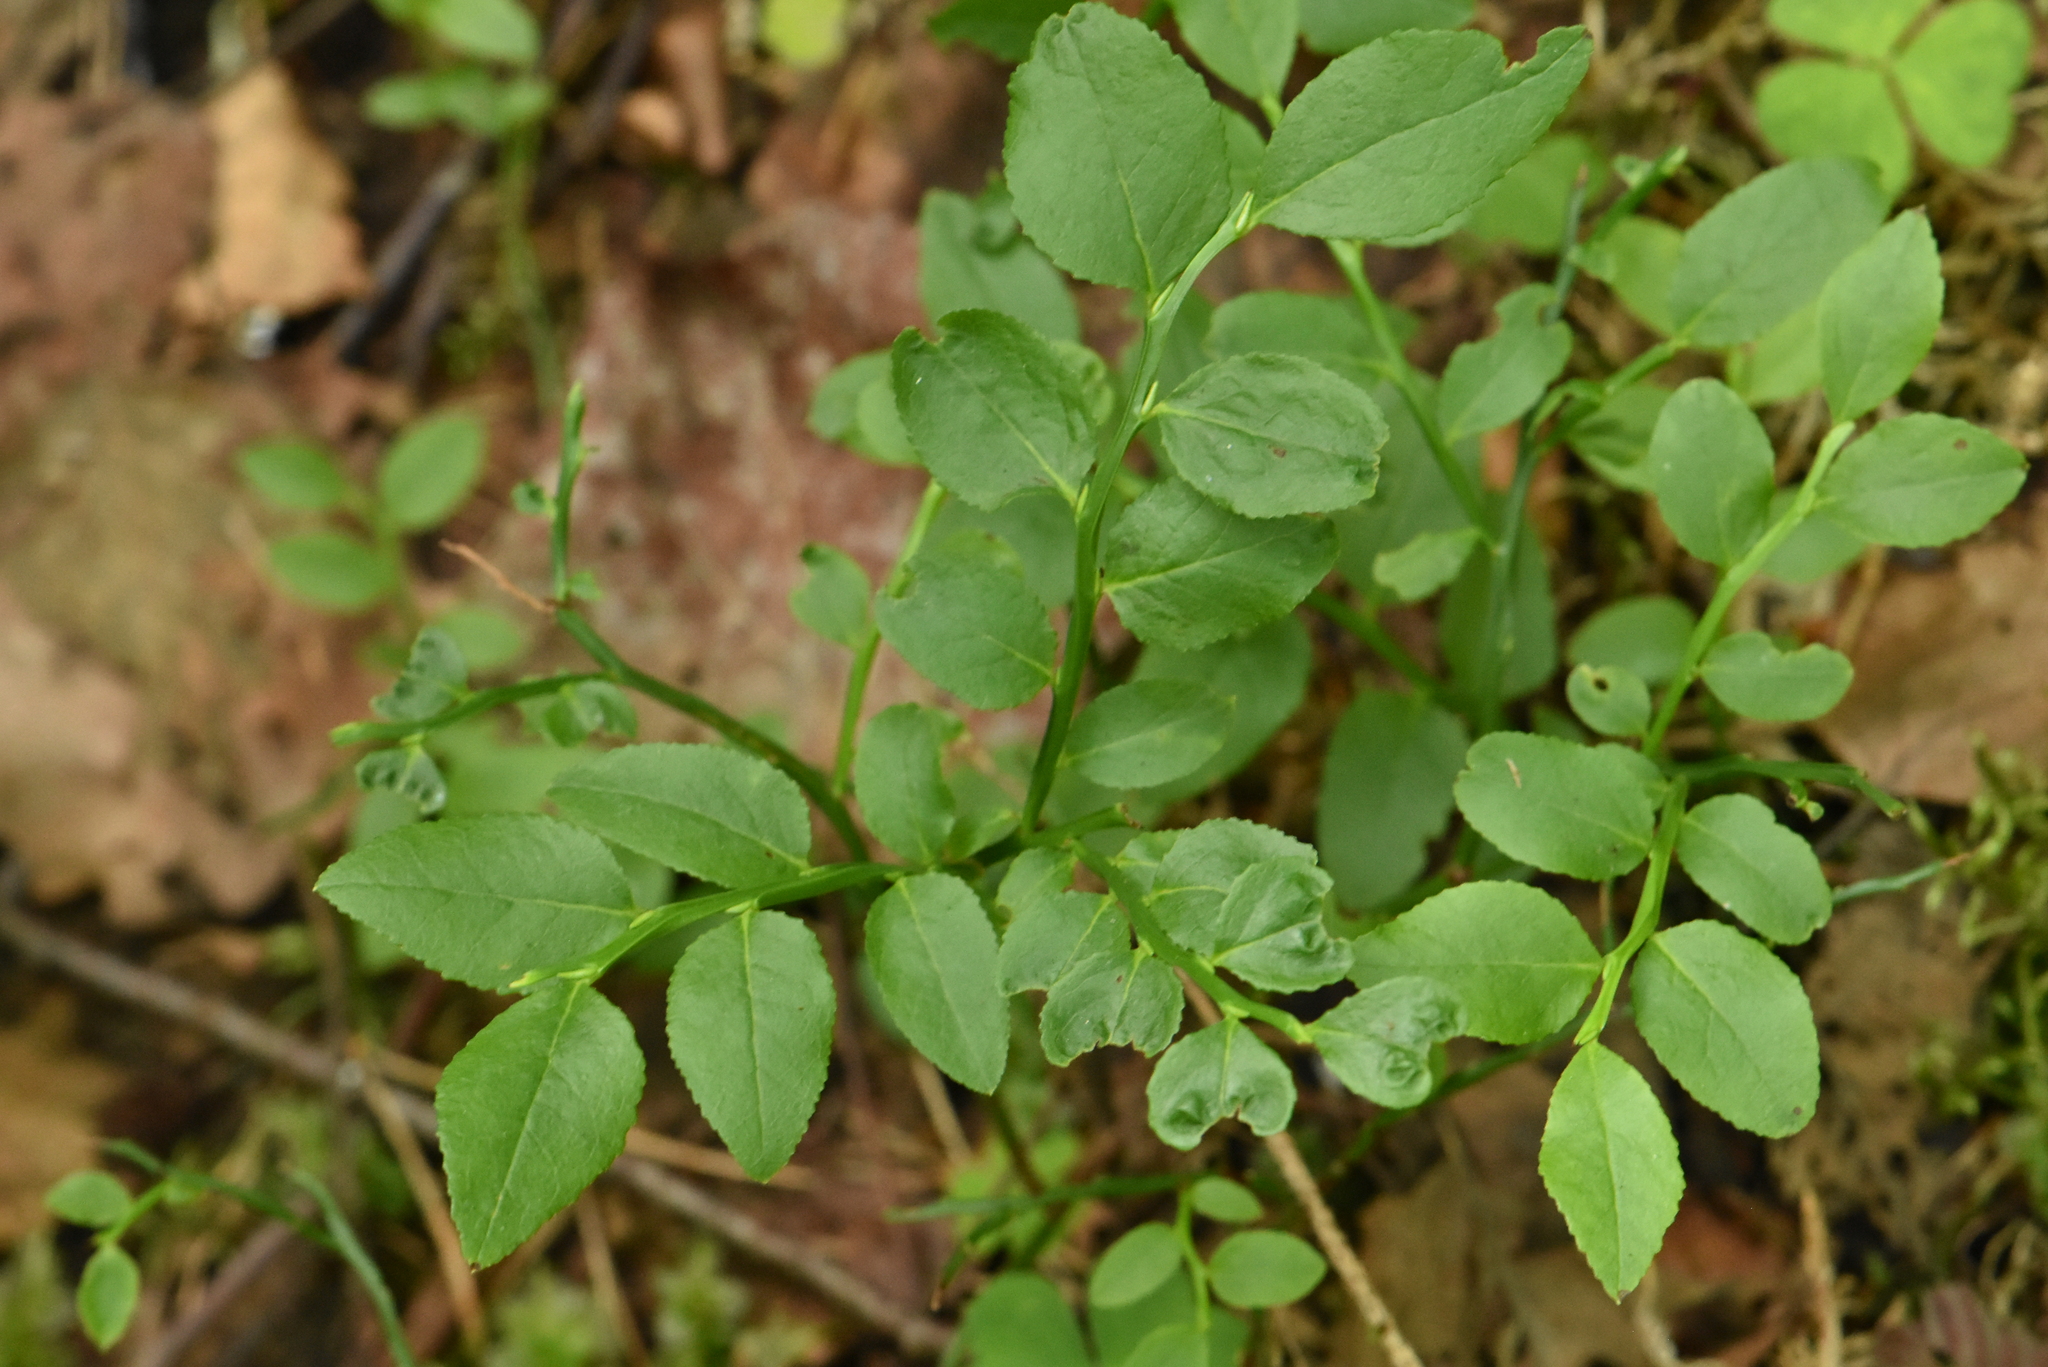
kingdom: Plantae
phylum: Tracheophyta
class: Magnoliopsida
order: Ericales
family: Ericaceae
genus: Vaccinium
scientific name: Vaccinium myrtillus
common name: Bilberry
